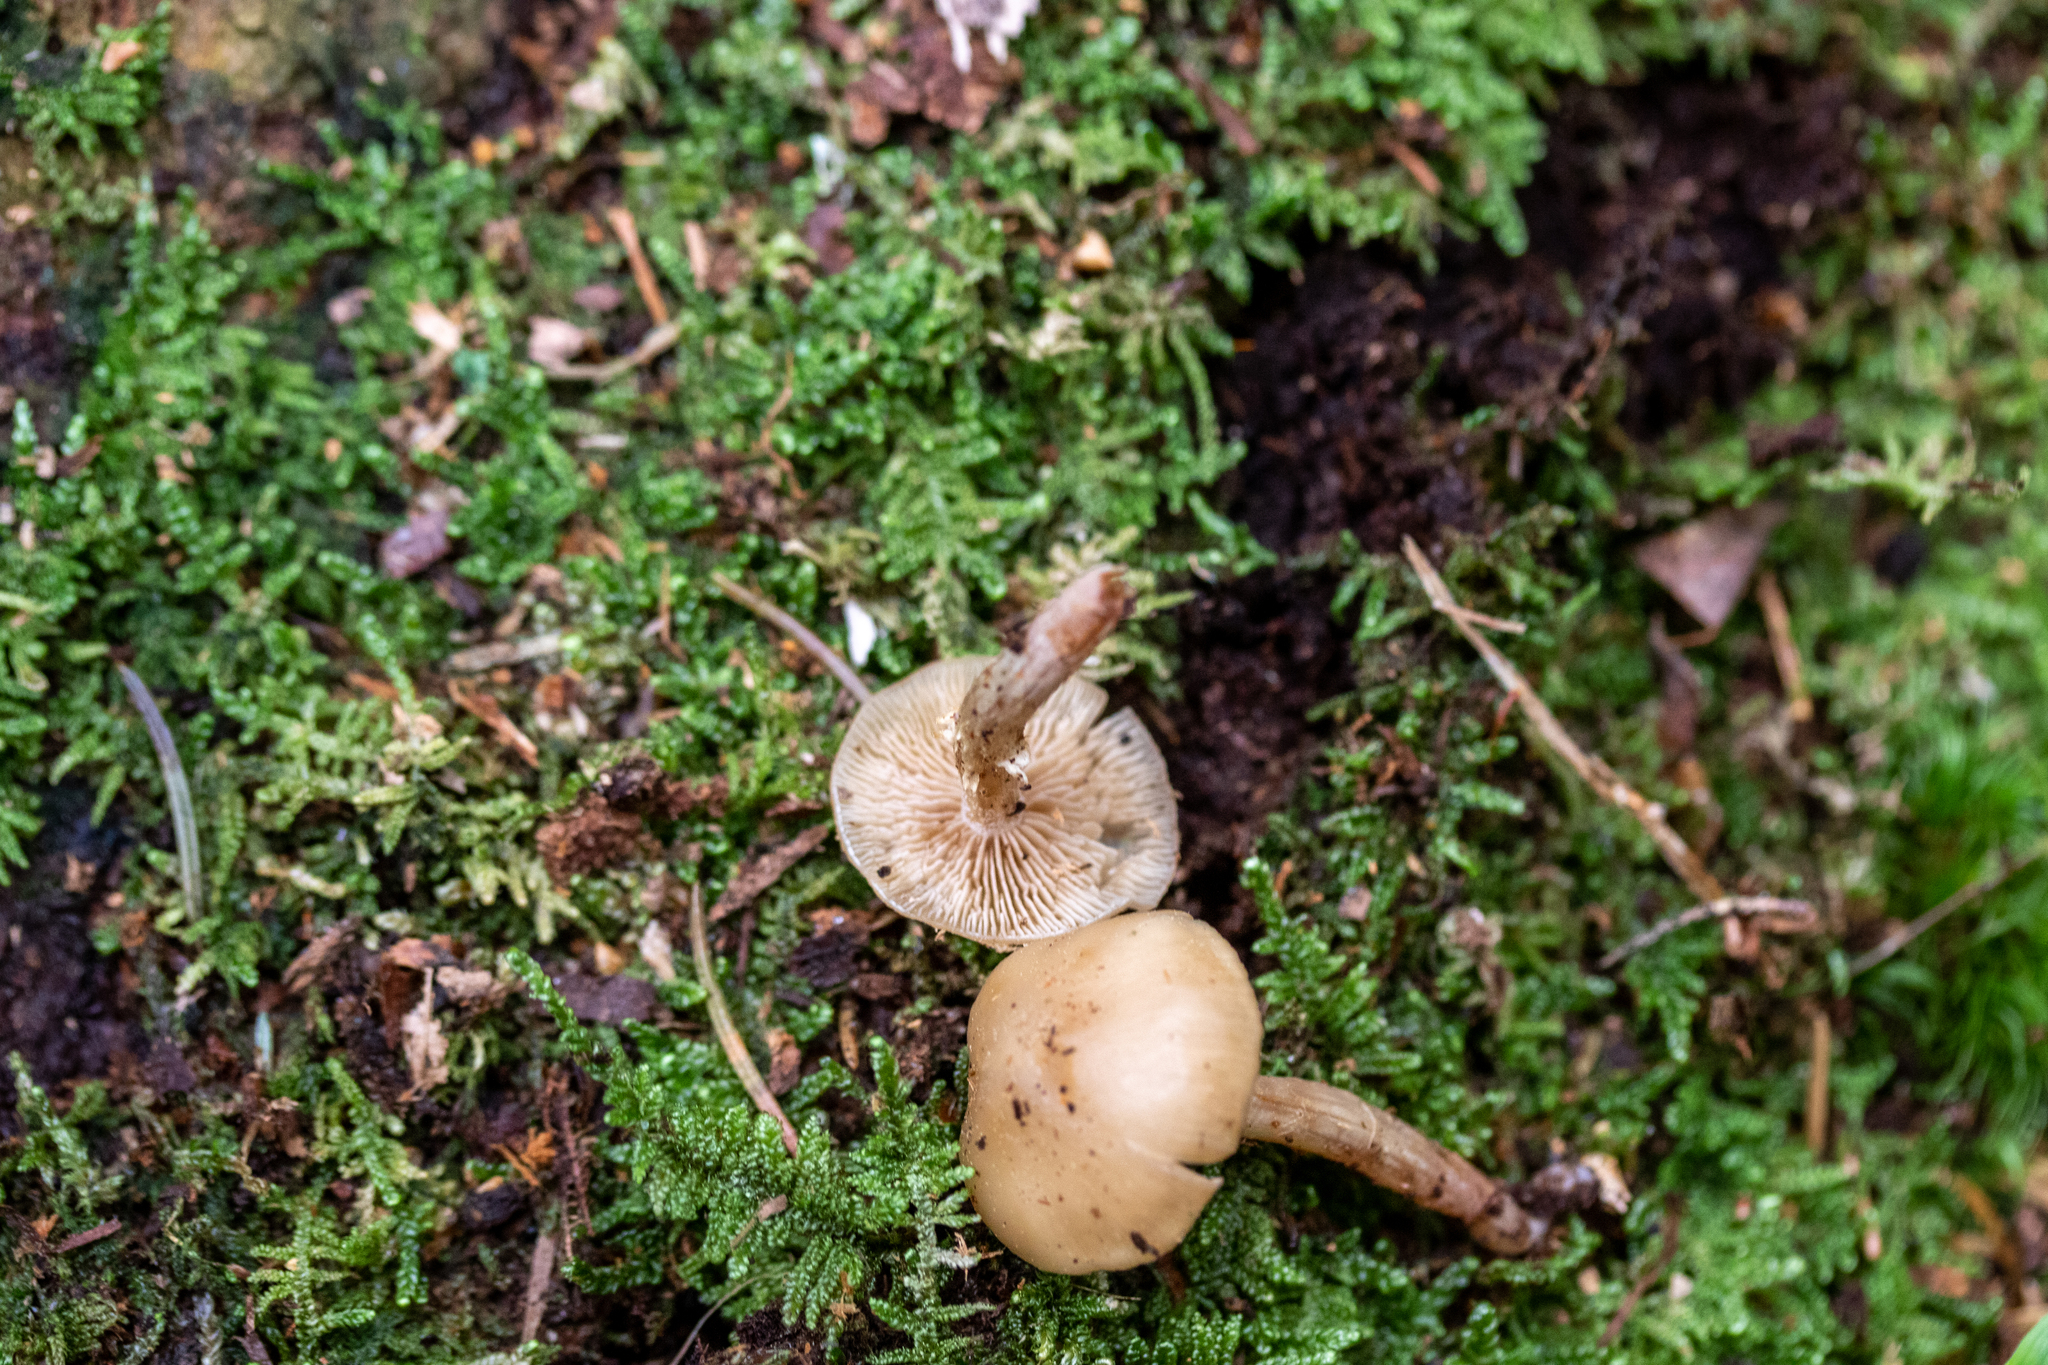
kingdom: Fungi
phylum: Basidiomycota
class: Agaricomycetes
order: Agaricales
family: Strophariaceae
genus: Kuehneromyces
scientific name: Kuehneromyces mutabilis
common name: Sheathed woodtuft
